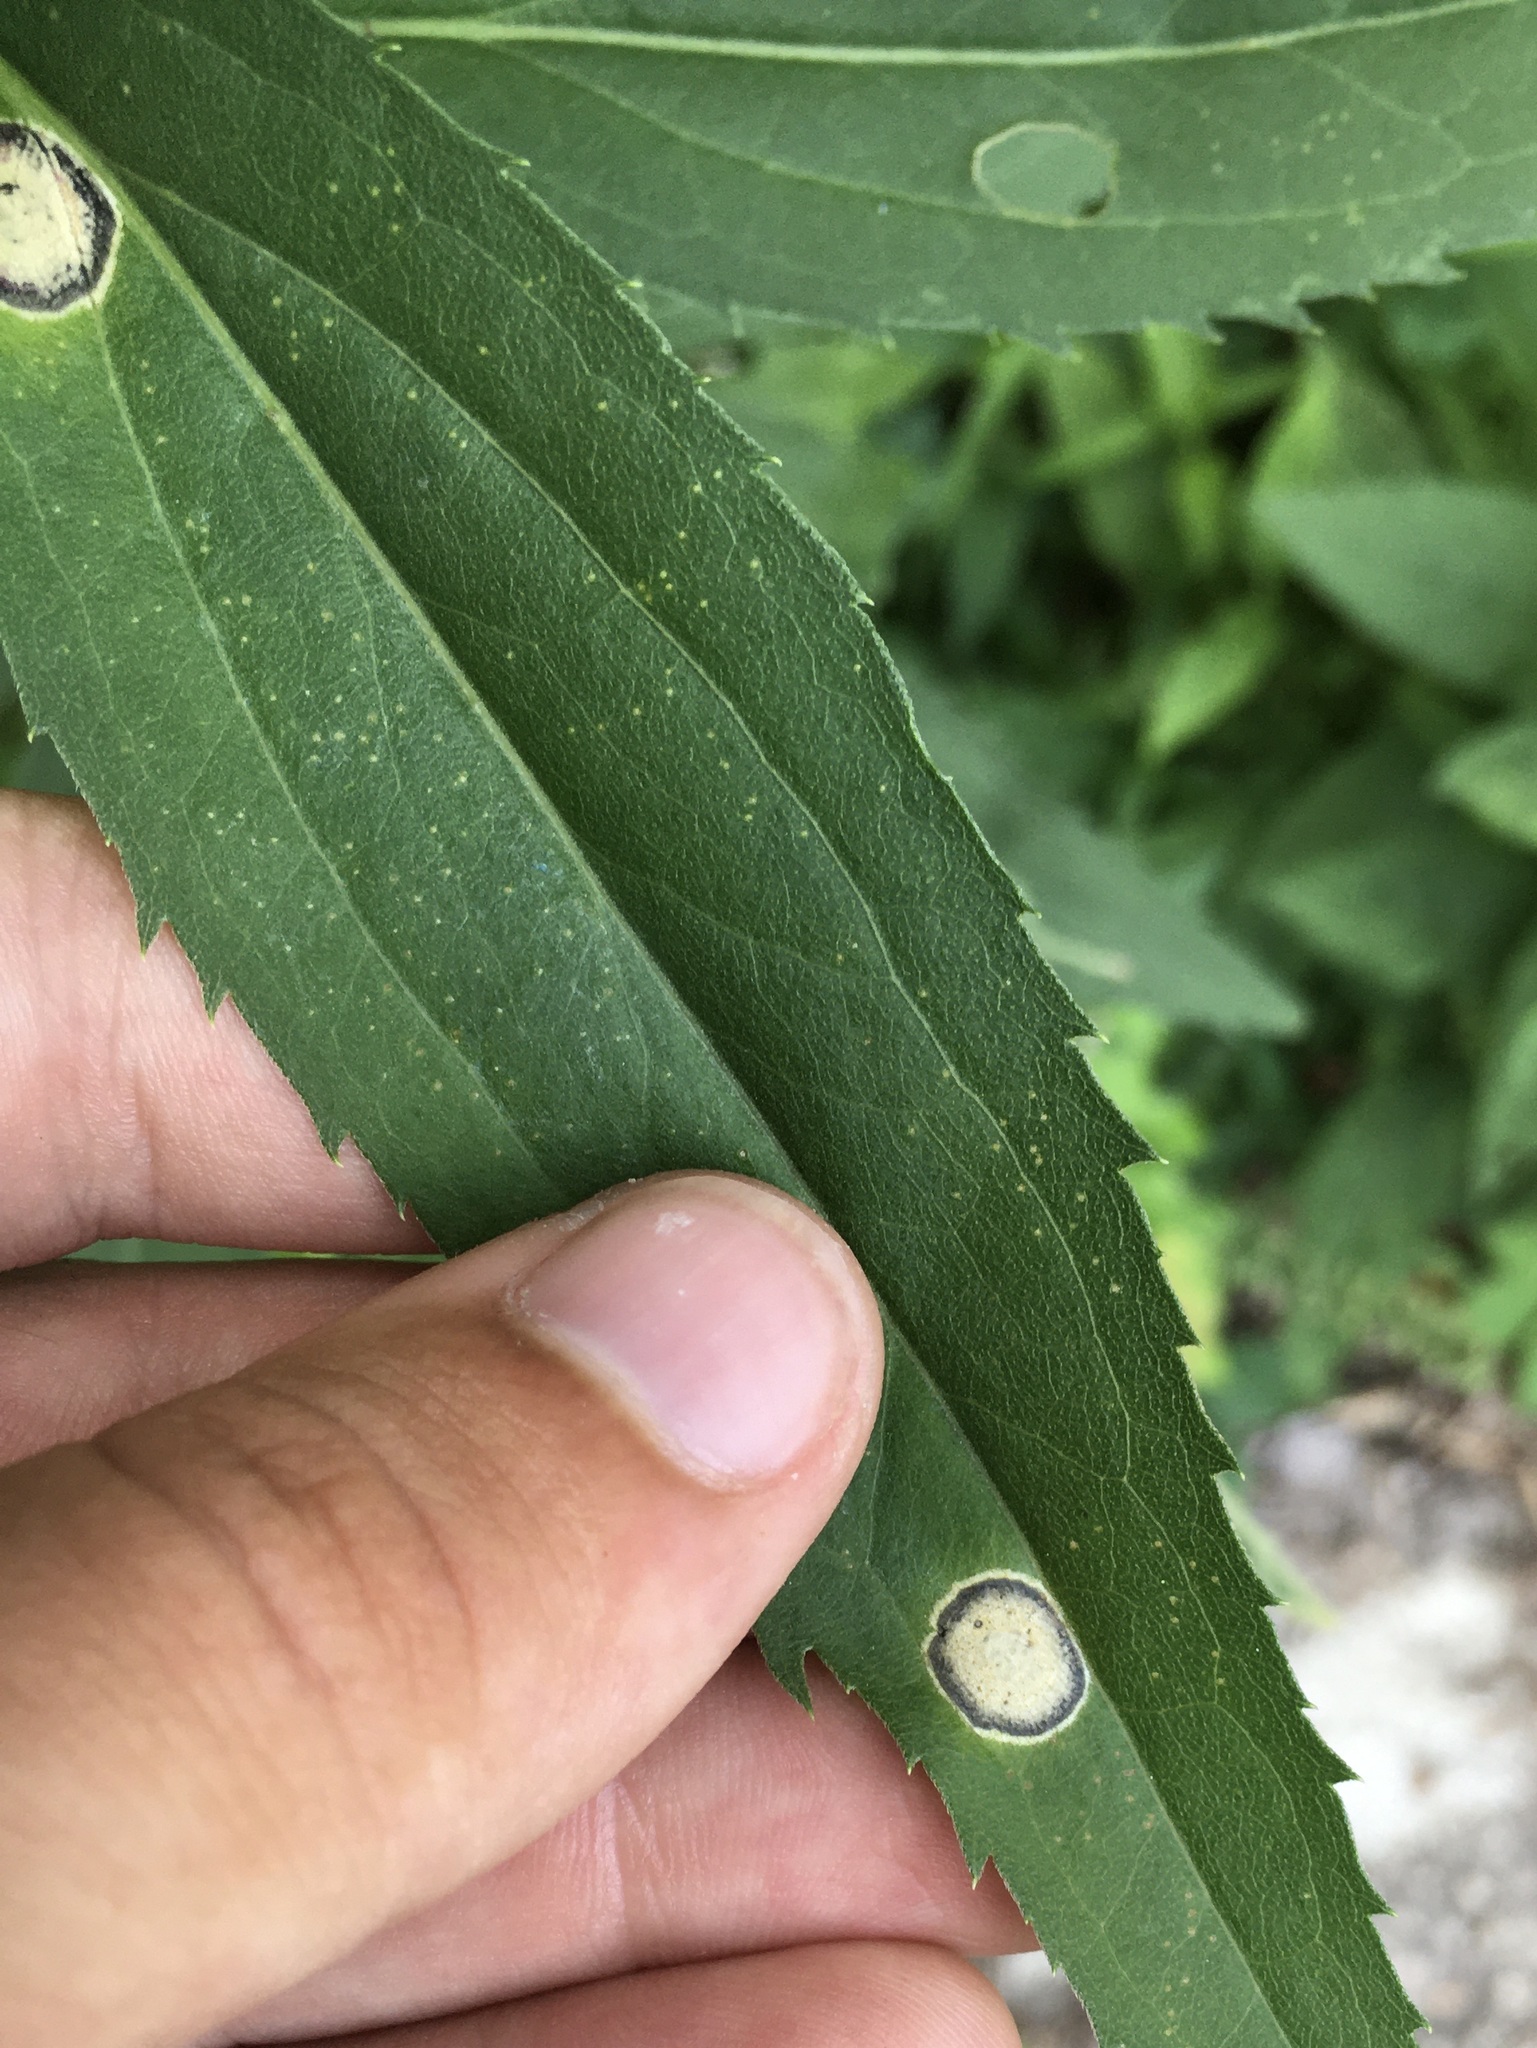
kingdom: Animalia
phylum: Arthropoda
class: Insecta
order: Diptera
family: Cecidomyiidae
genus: Asteromyia
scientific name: Asteromyia carbonifera
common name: Carbonifera goldenrod gall midge
